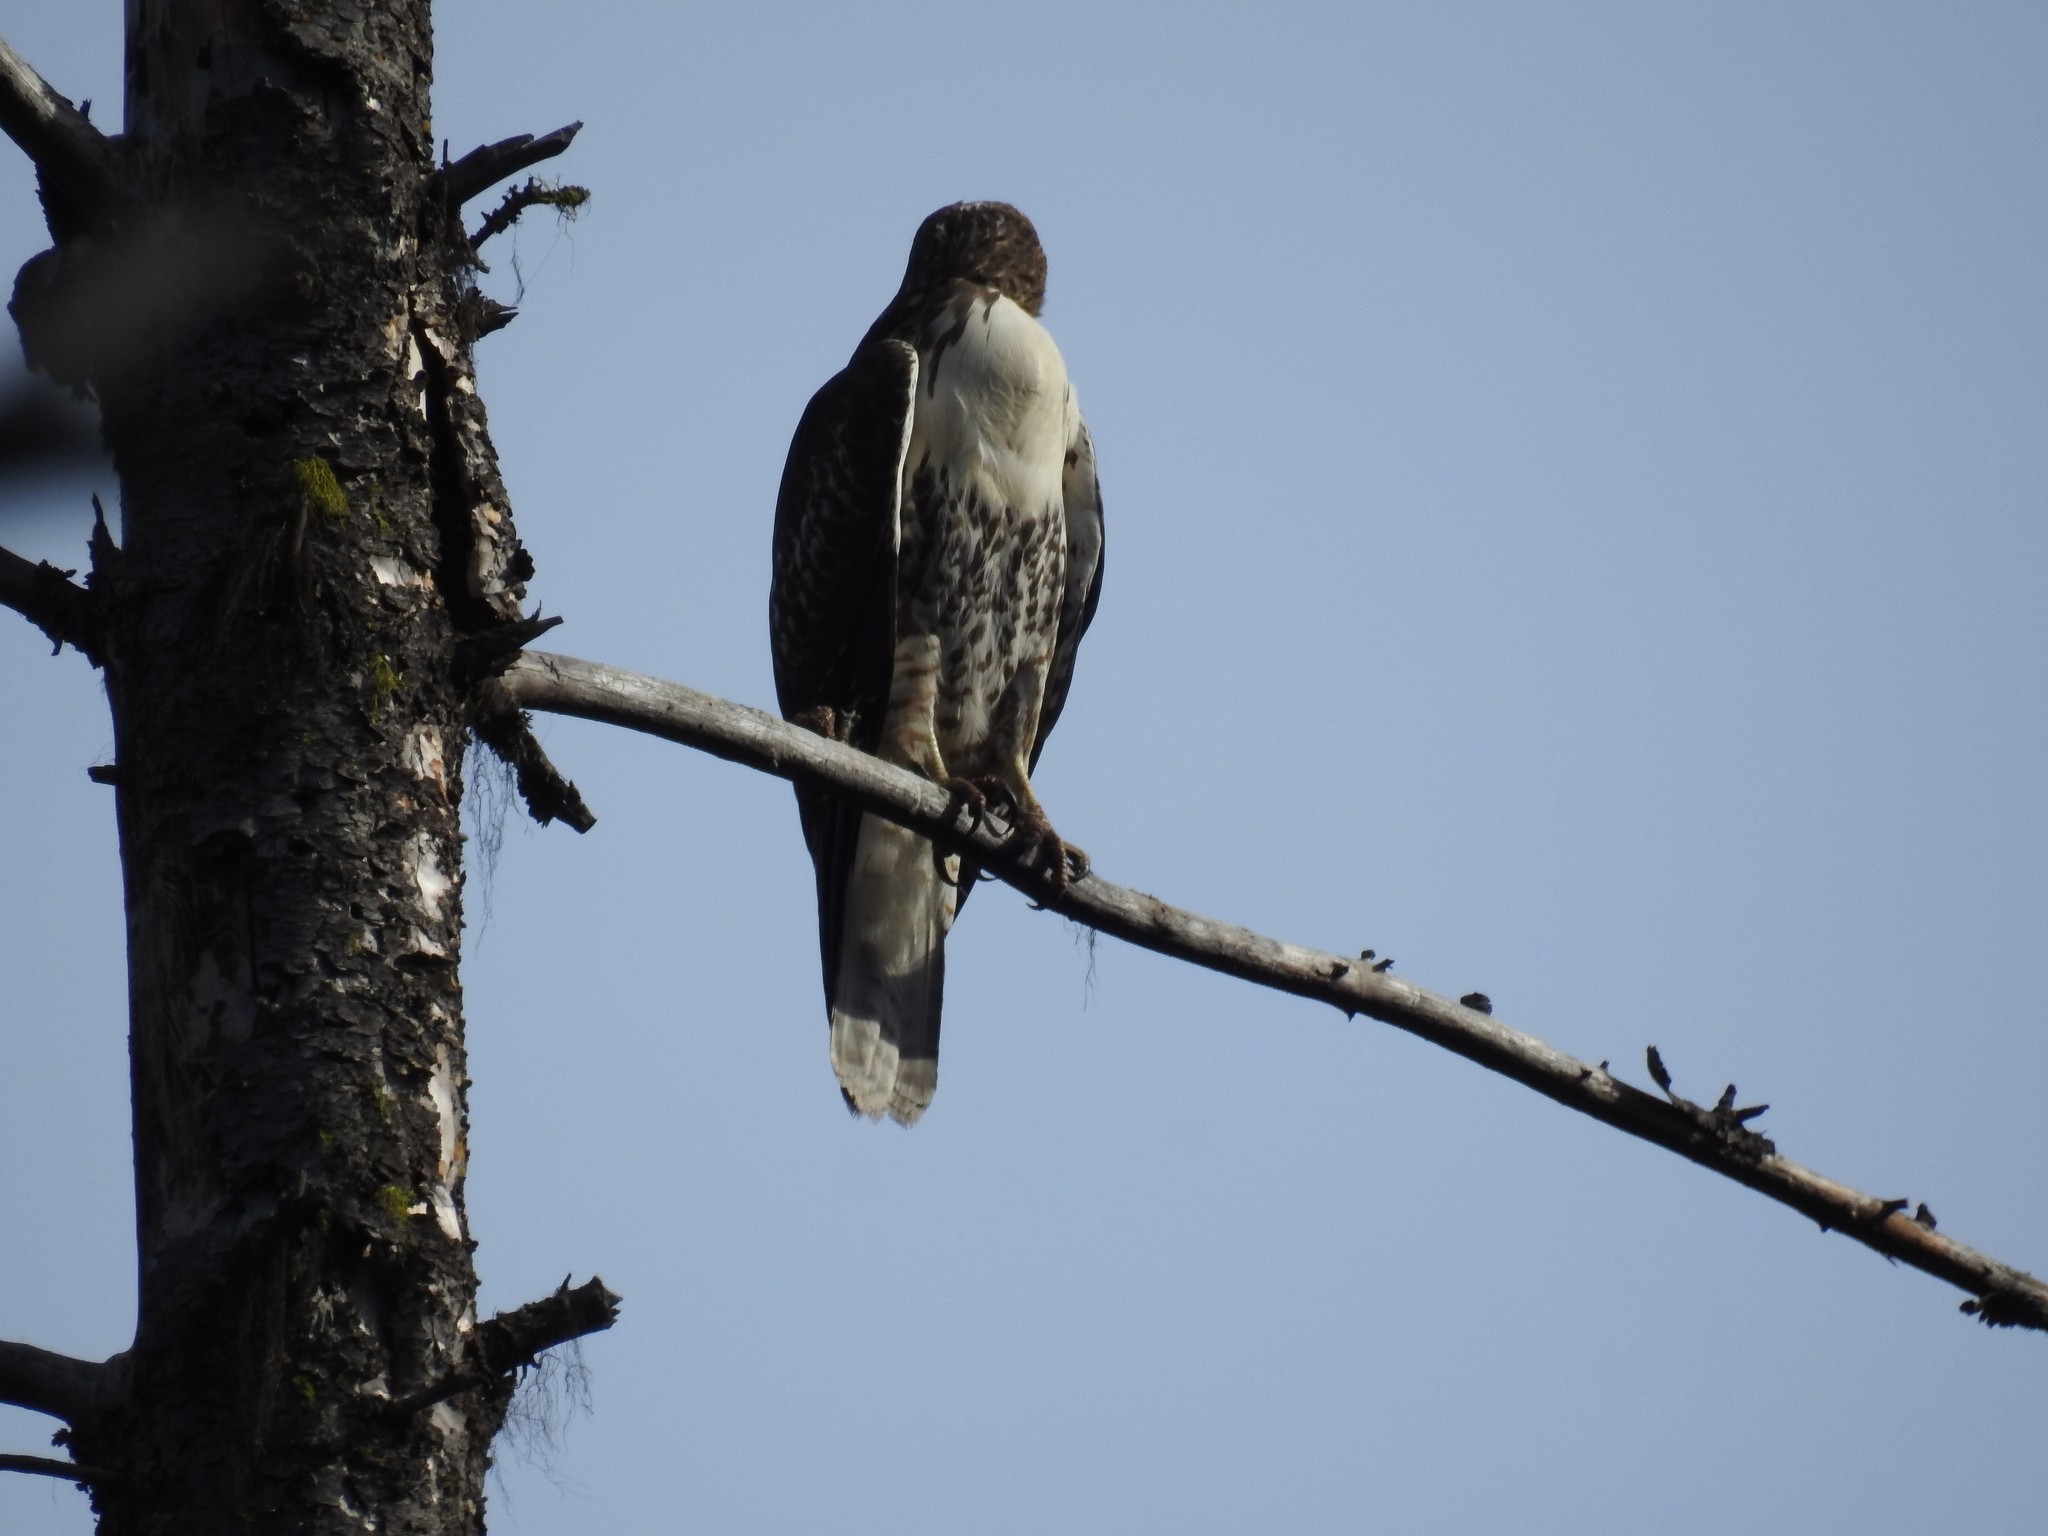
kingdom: Animalia
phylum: Chordata
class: Aves
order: Accipitriformes
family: Accipitridae
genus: Buteo
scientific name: Buteo jamaicensis
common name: Red-tailed hawk
